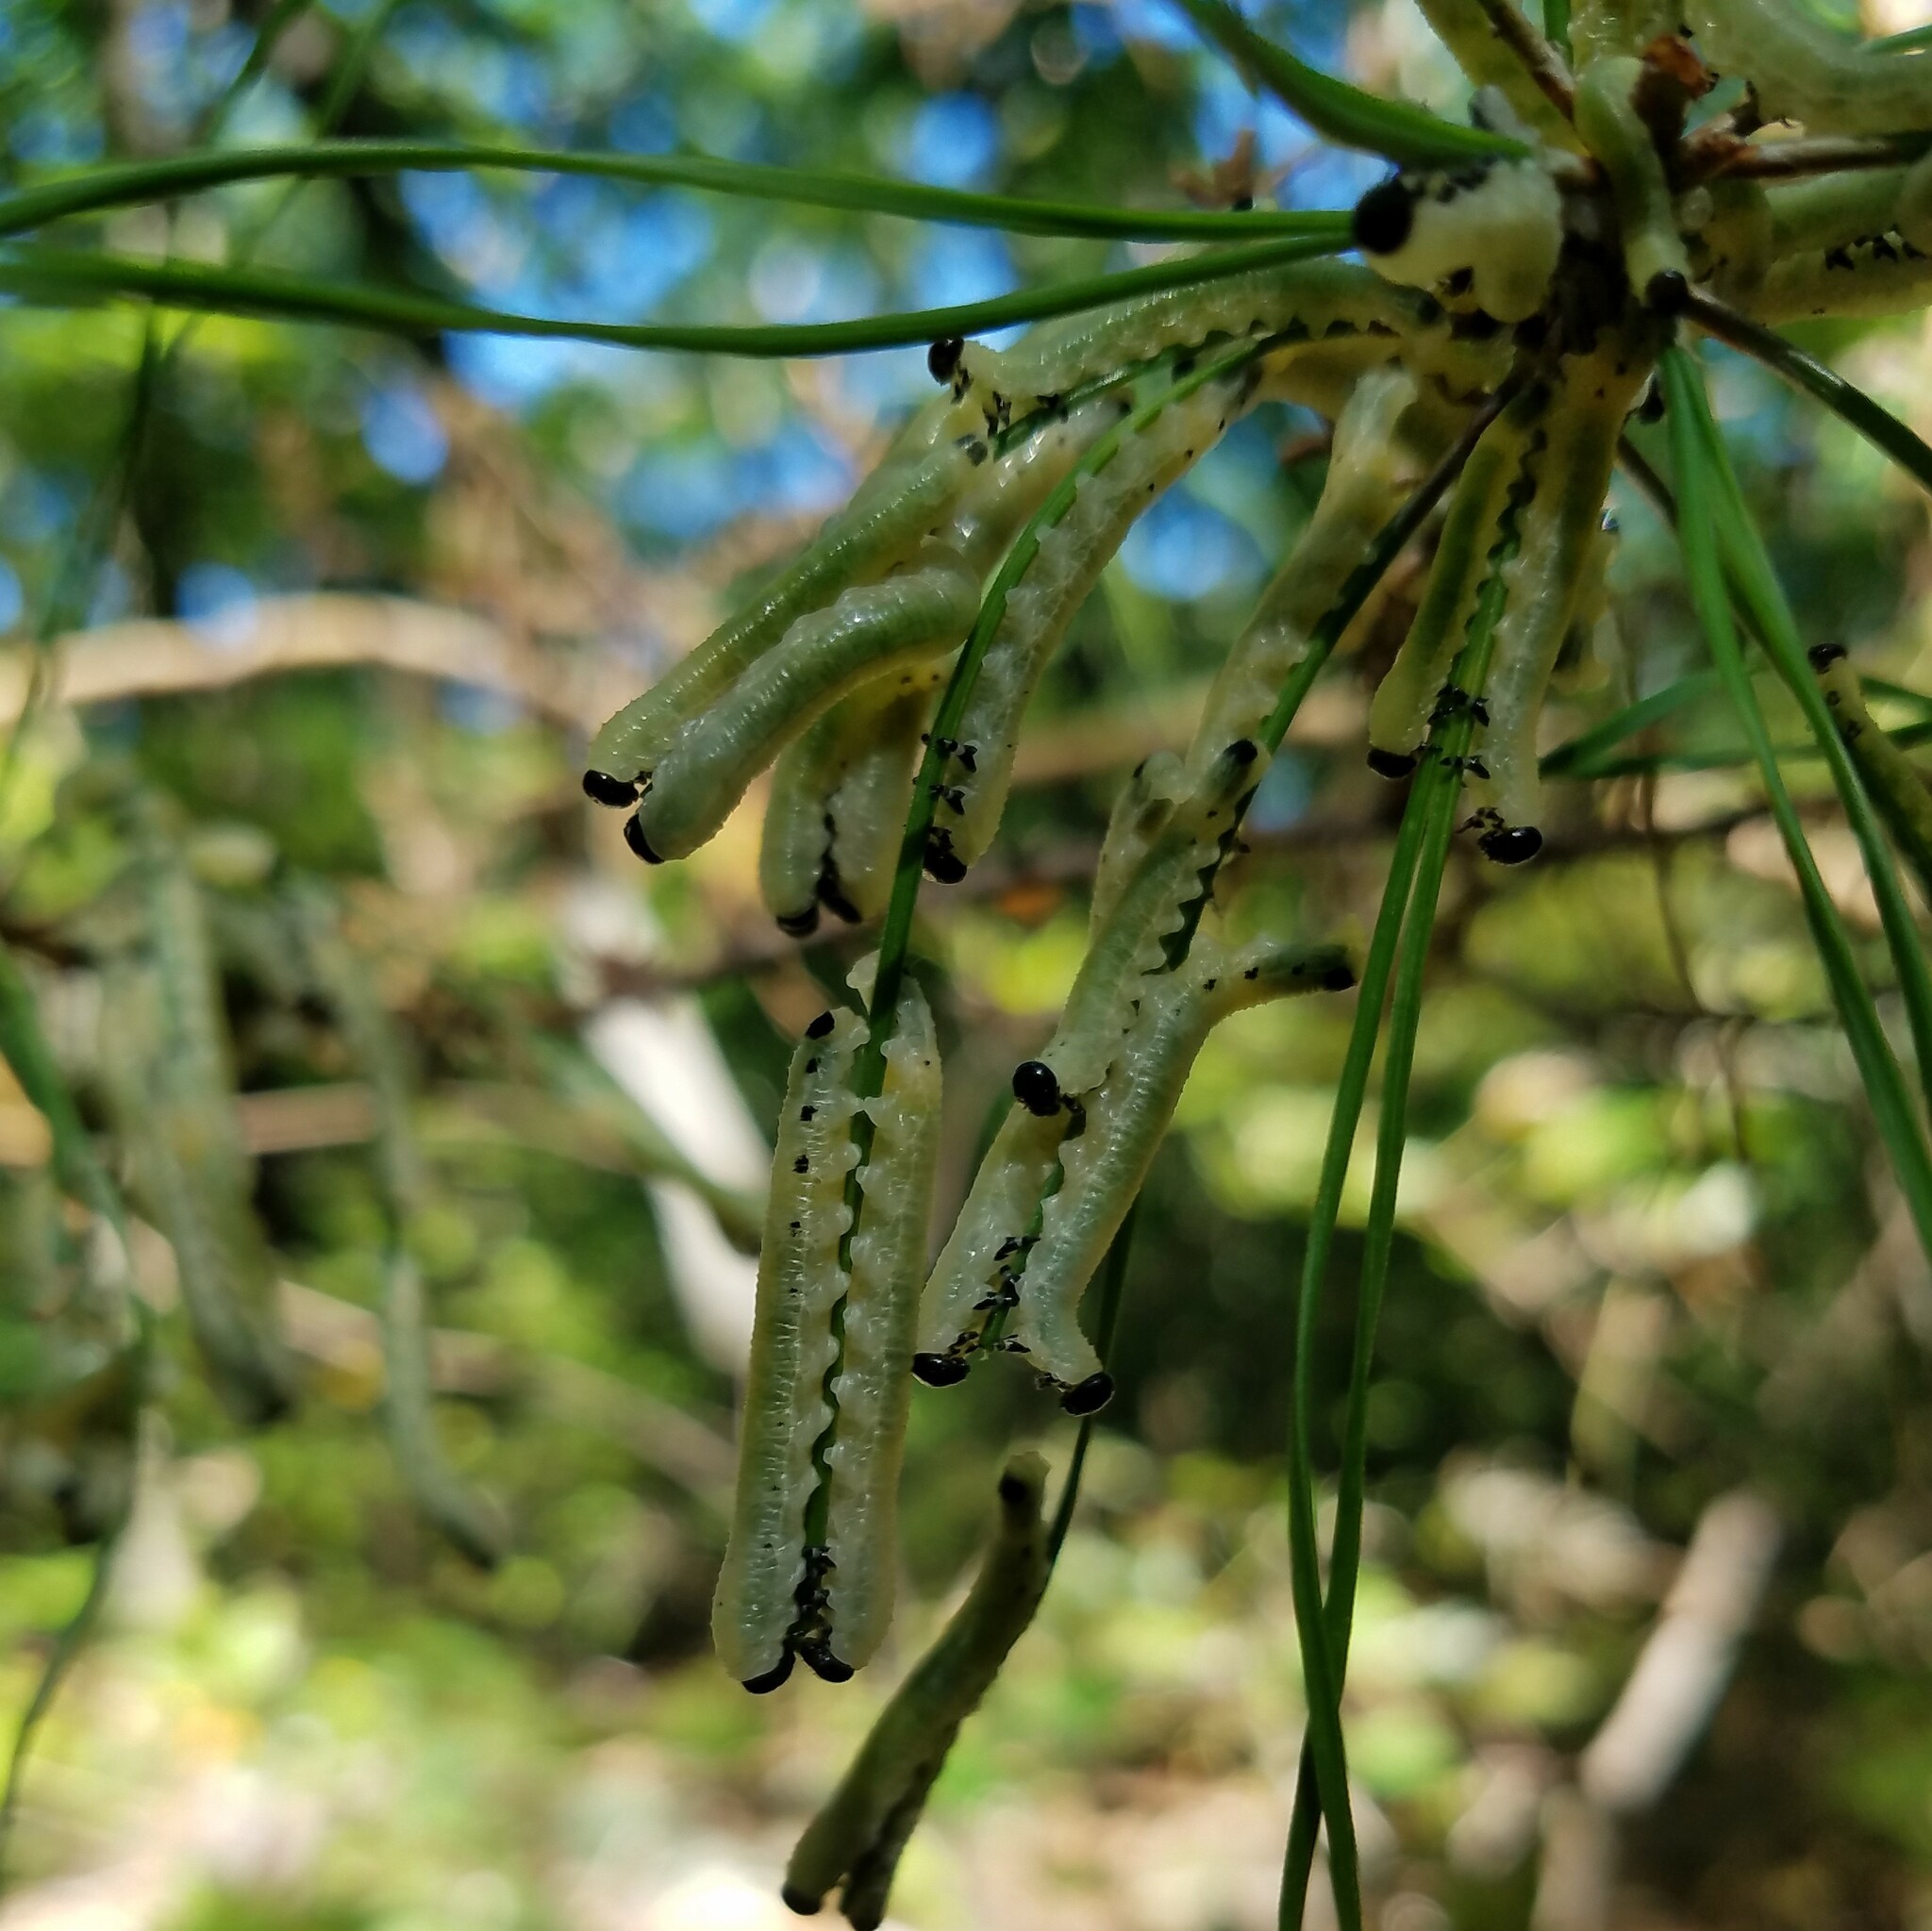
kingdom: Animalia
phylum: Arthropoda
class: Insecta
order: Hymenoptera
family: Diprionidae
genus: Neodiprion
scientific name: Neodiprion
